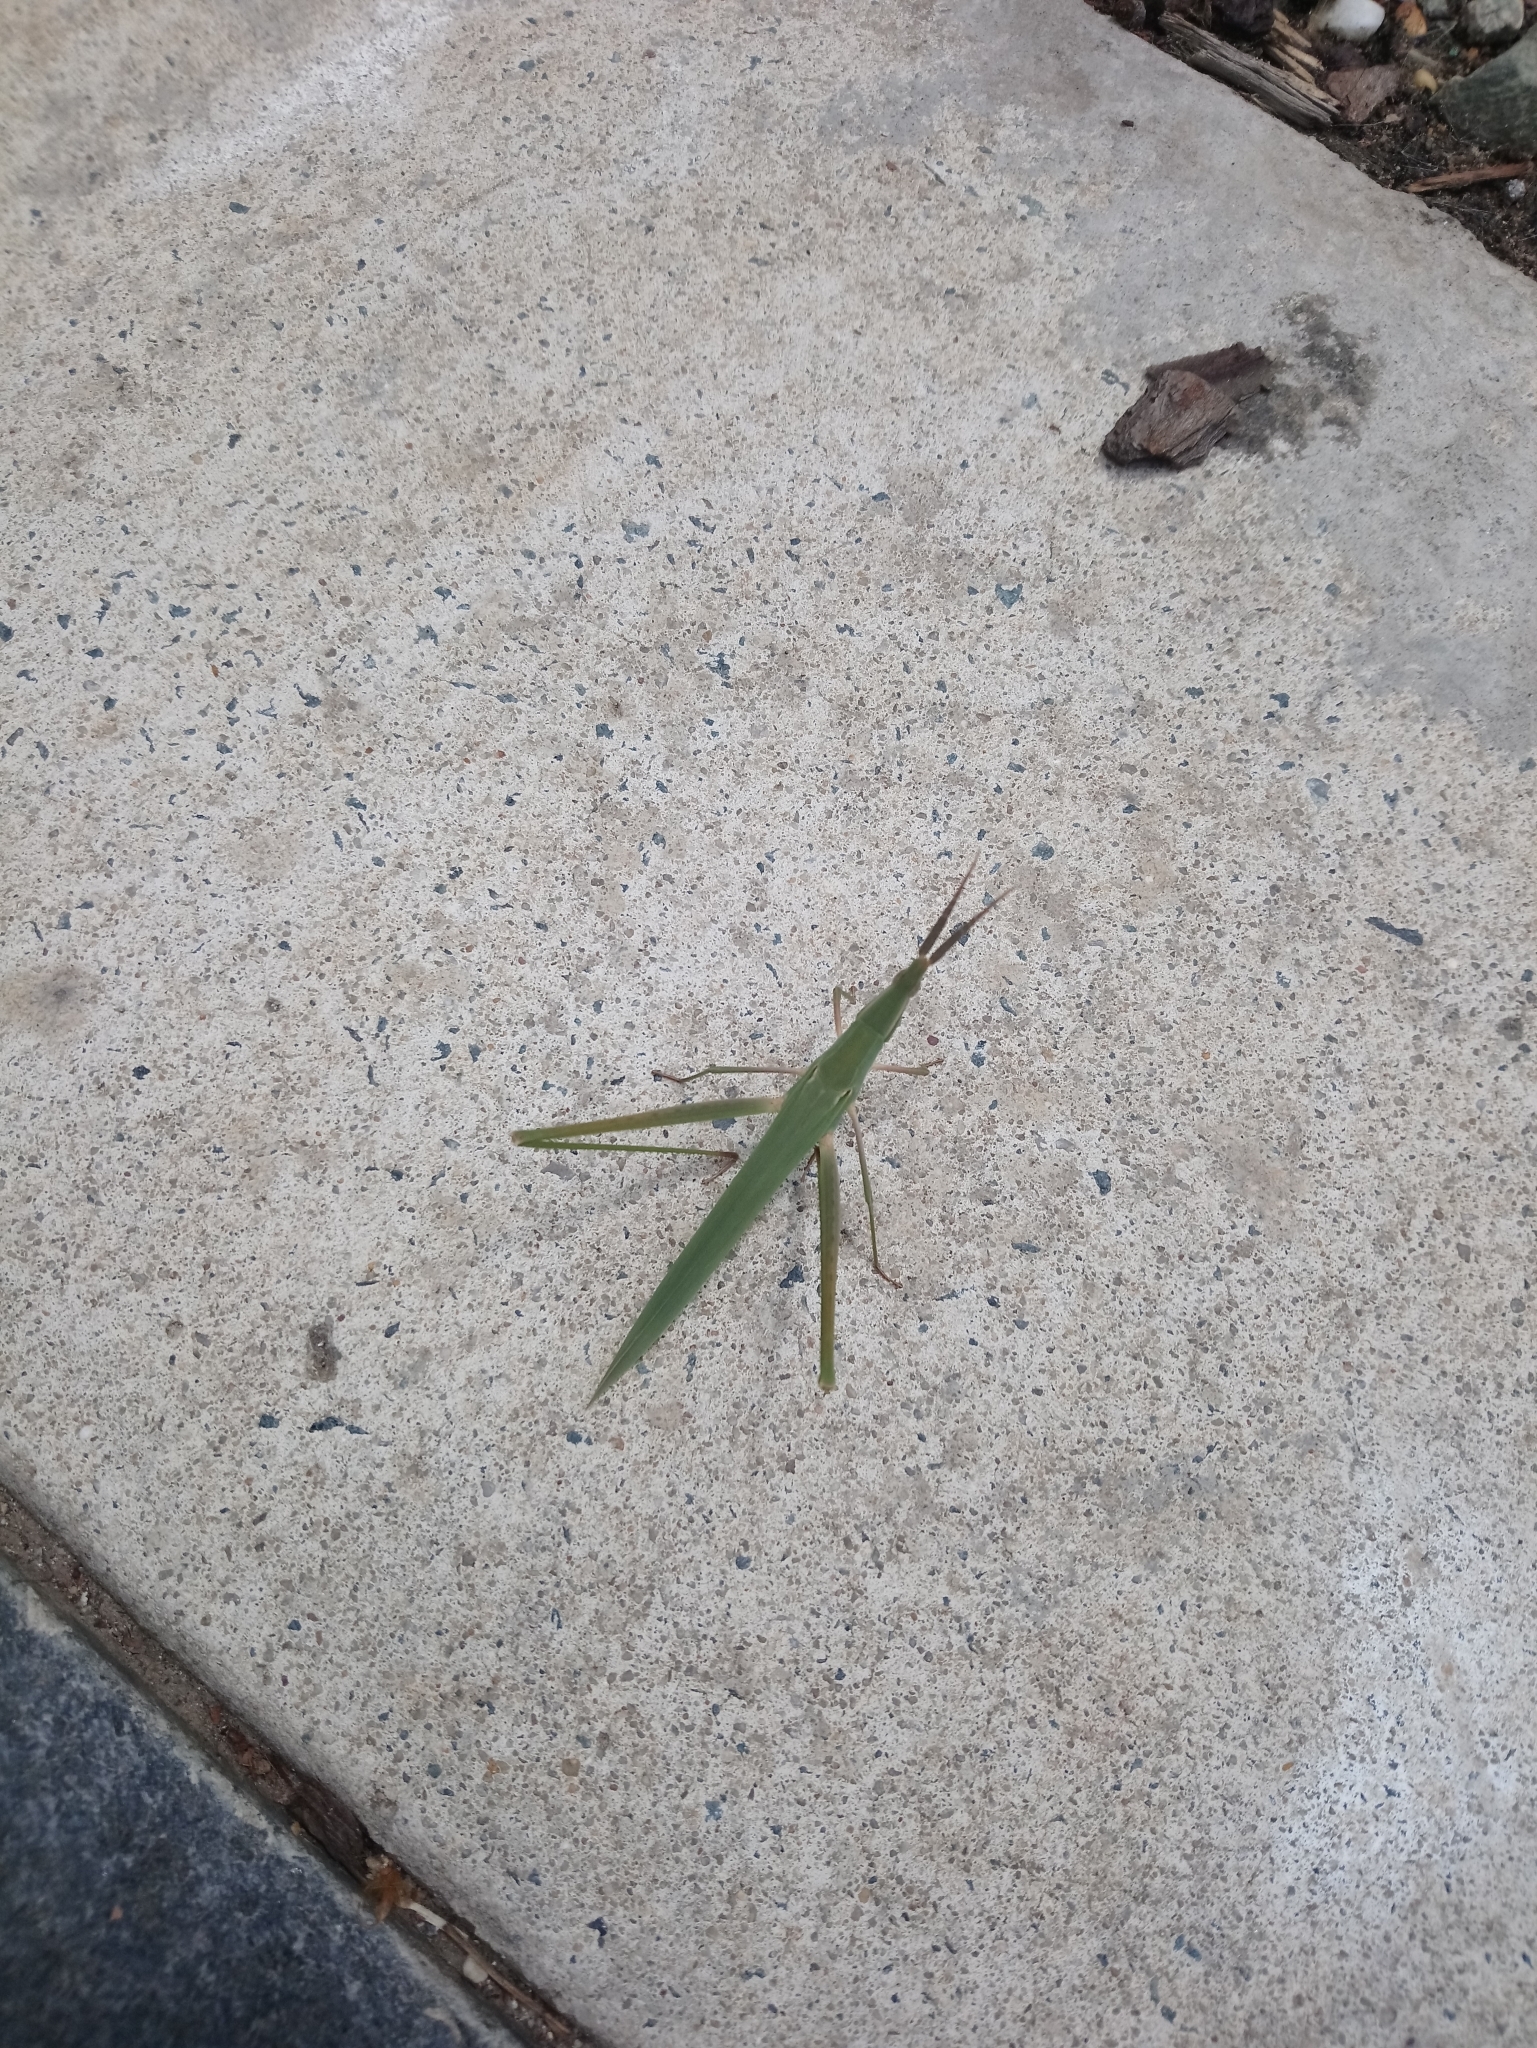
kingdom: Animalia
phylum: Arthropoda
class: Insecta
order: Orthoptera
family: Acrididae
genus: Acrida
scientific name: Acrida conica
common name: Giant green slantface
